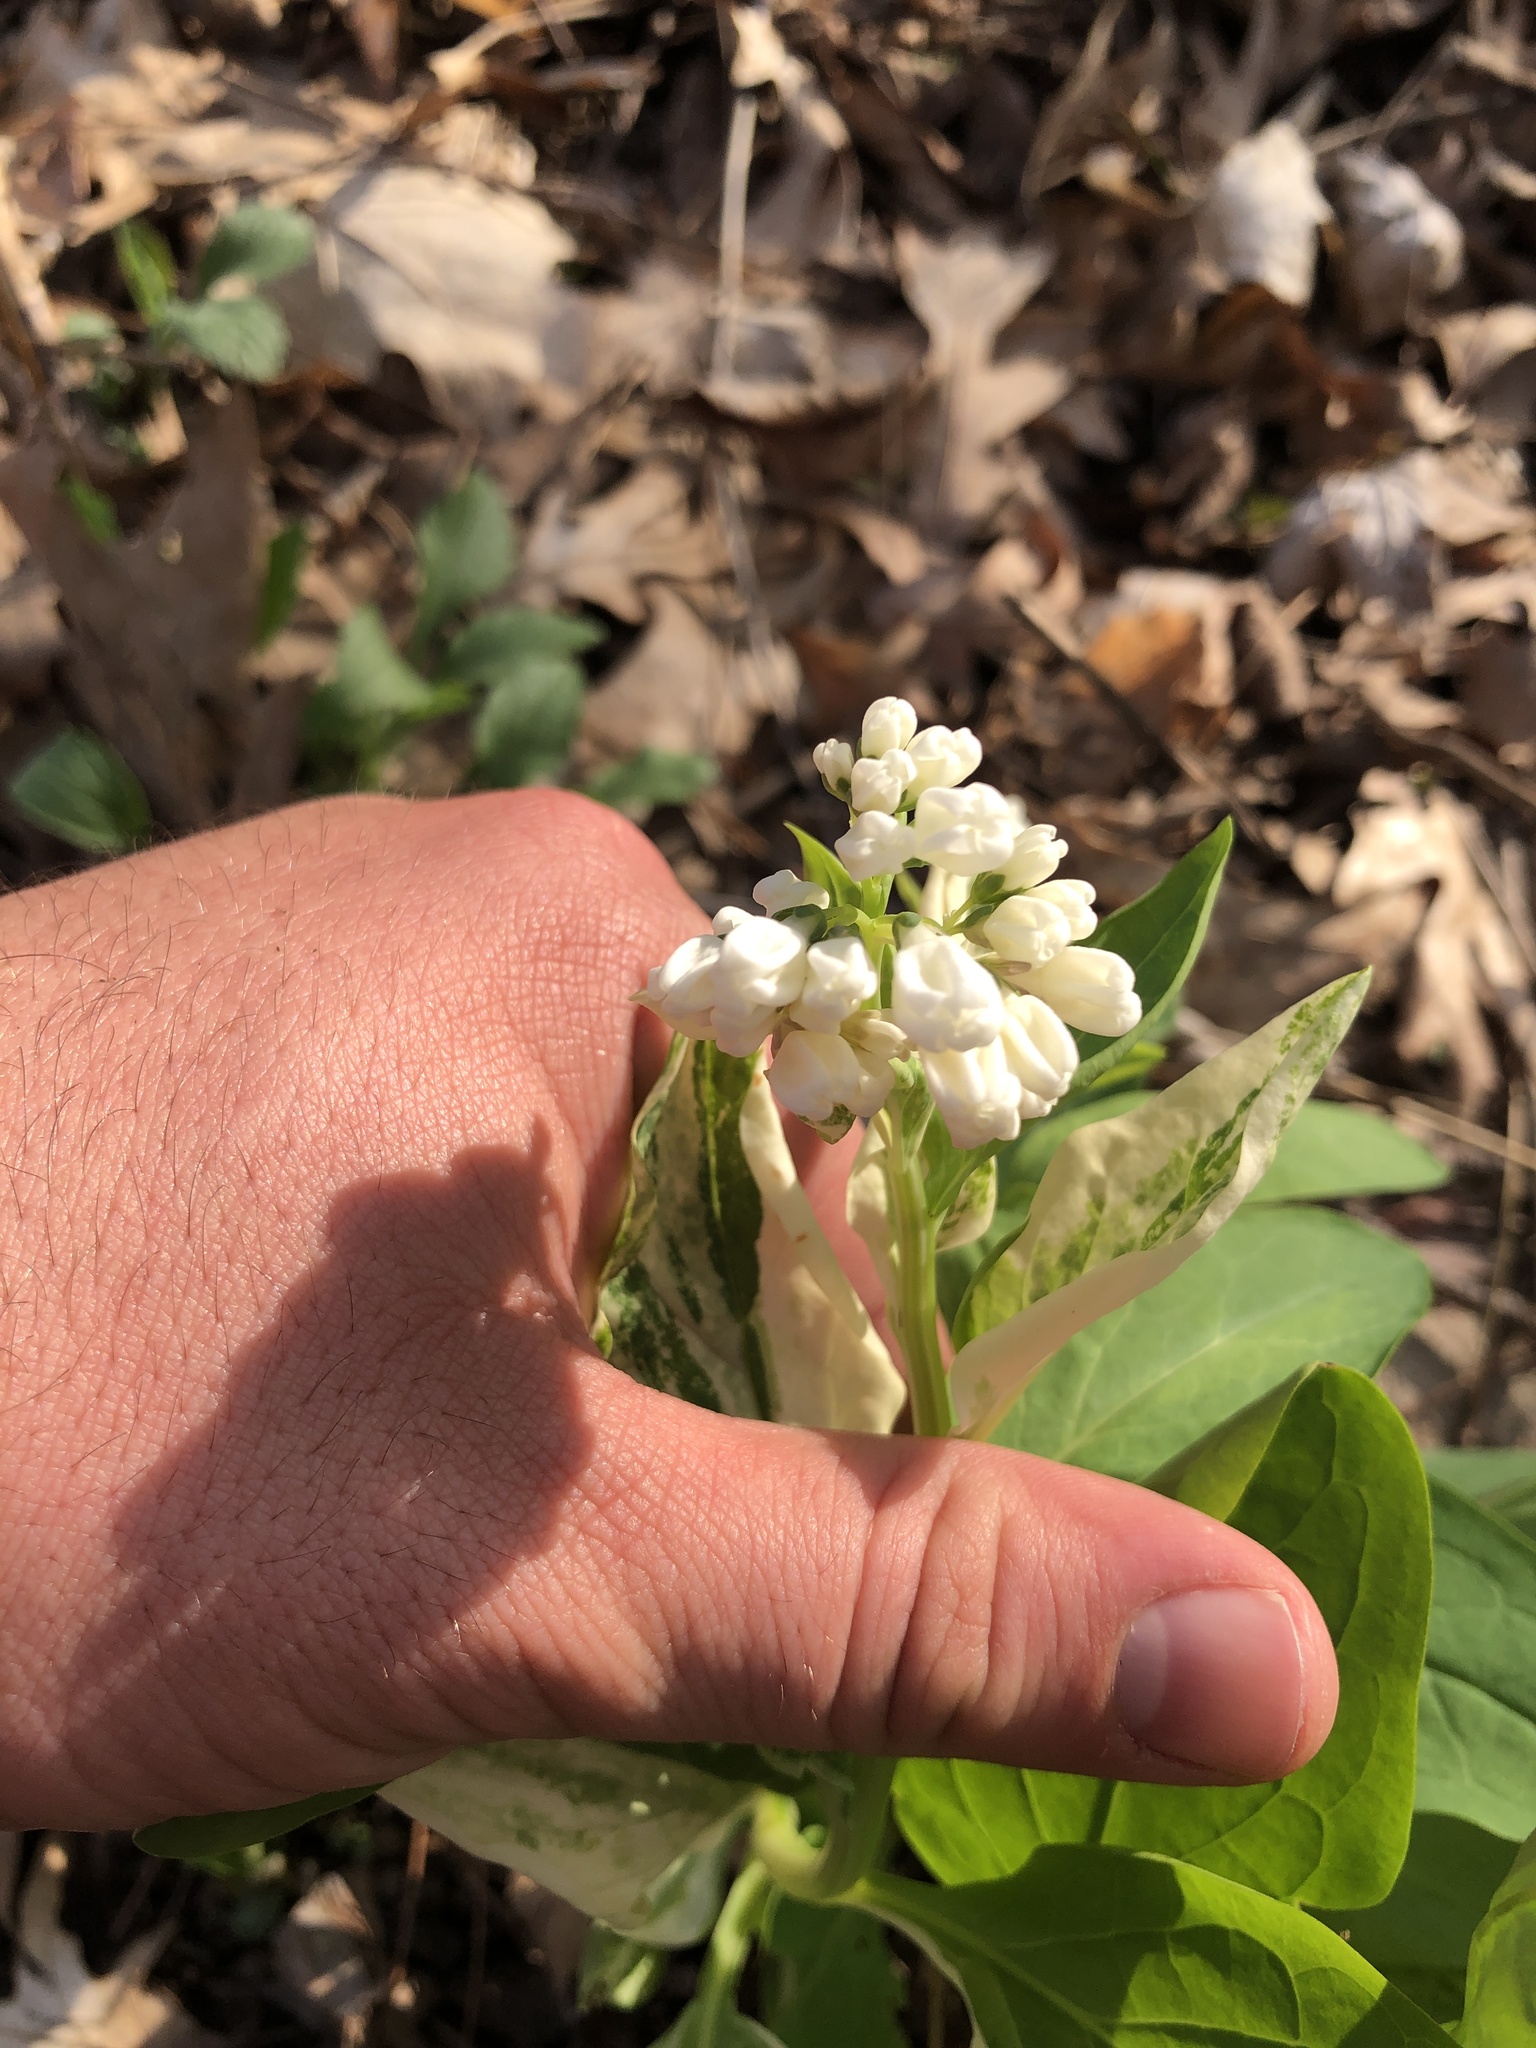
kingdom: Plantae
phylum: Tracheophyta
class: Magnoliopsida
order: Boraginales
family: Boraginaceae
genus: Mertensia
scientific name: Mertensia virginica
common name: Virginia bluebells
